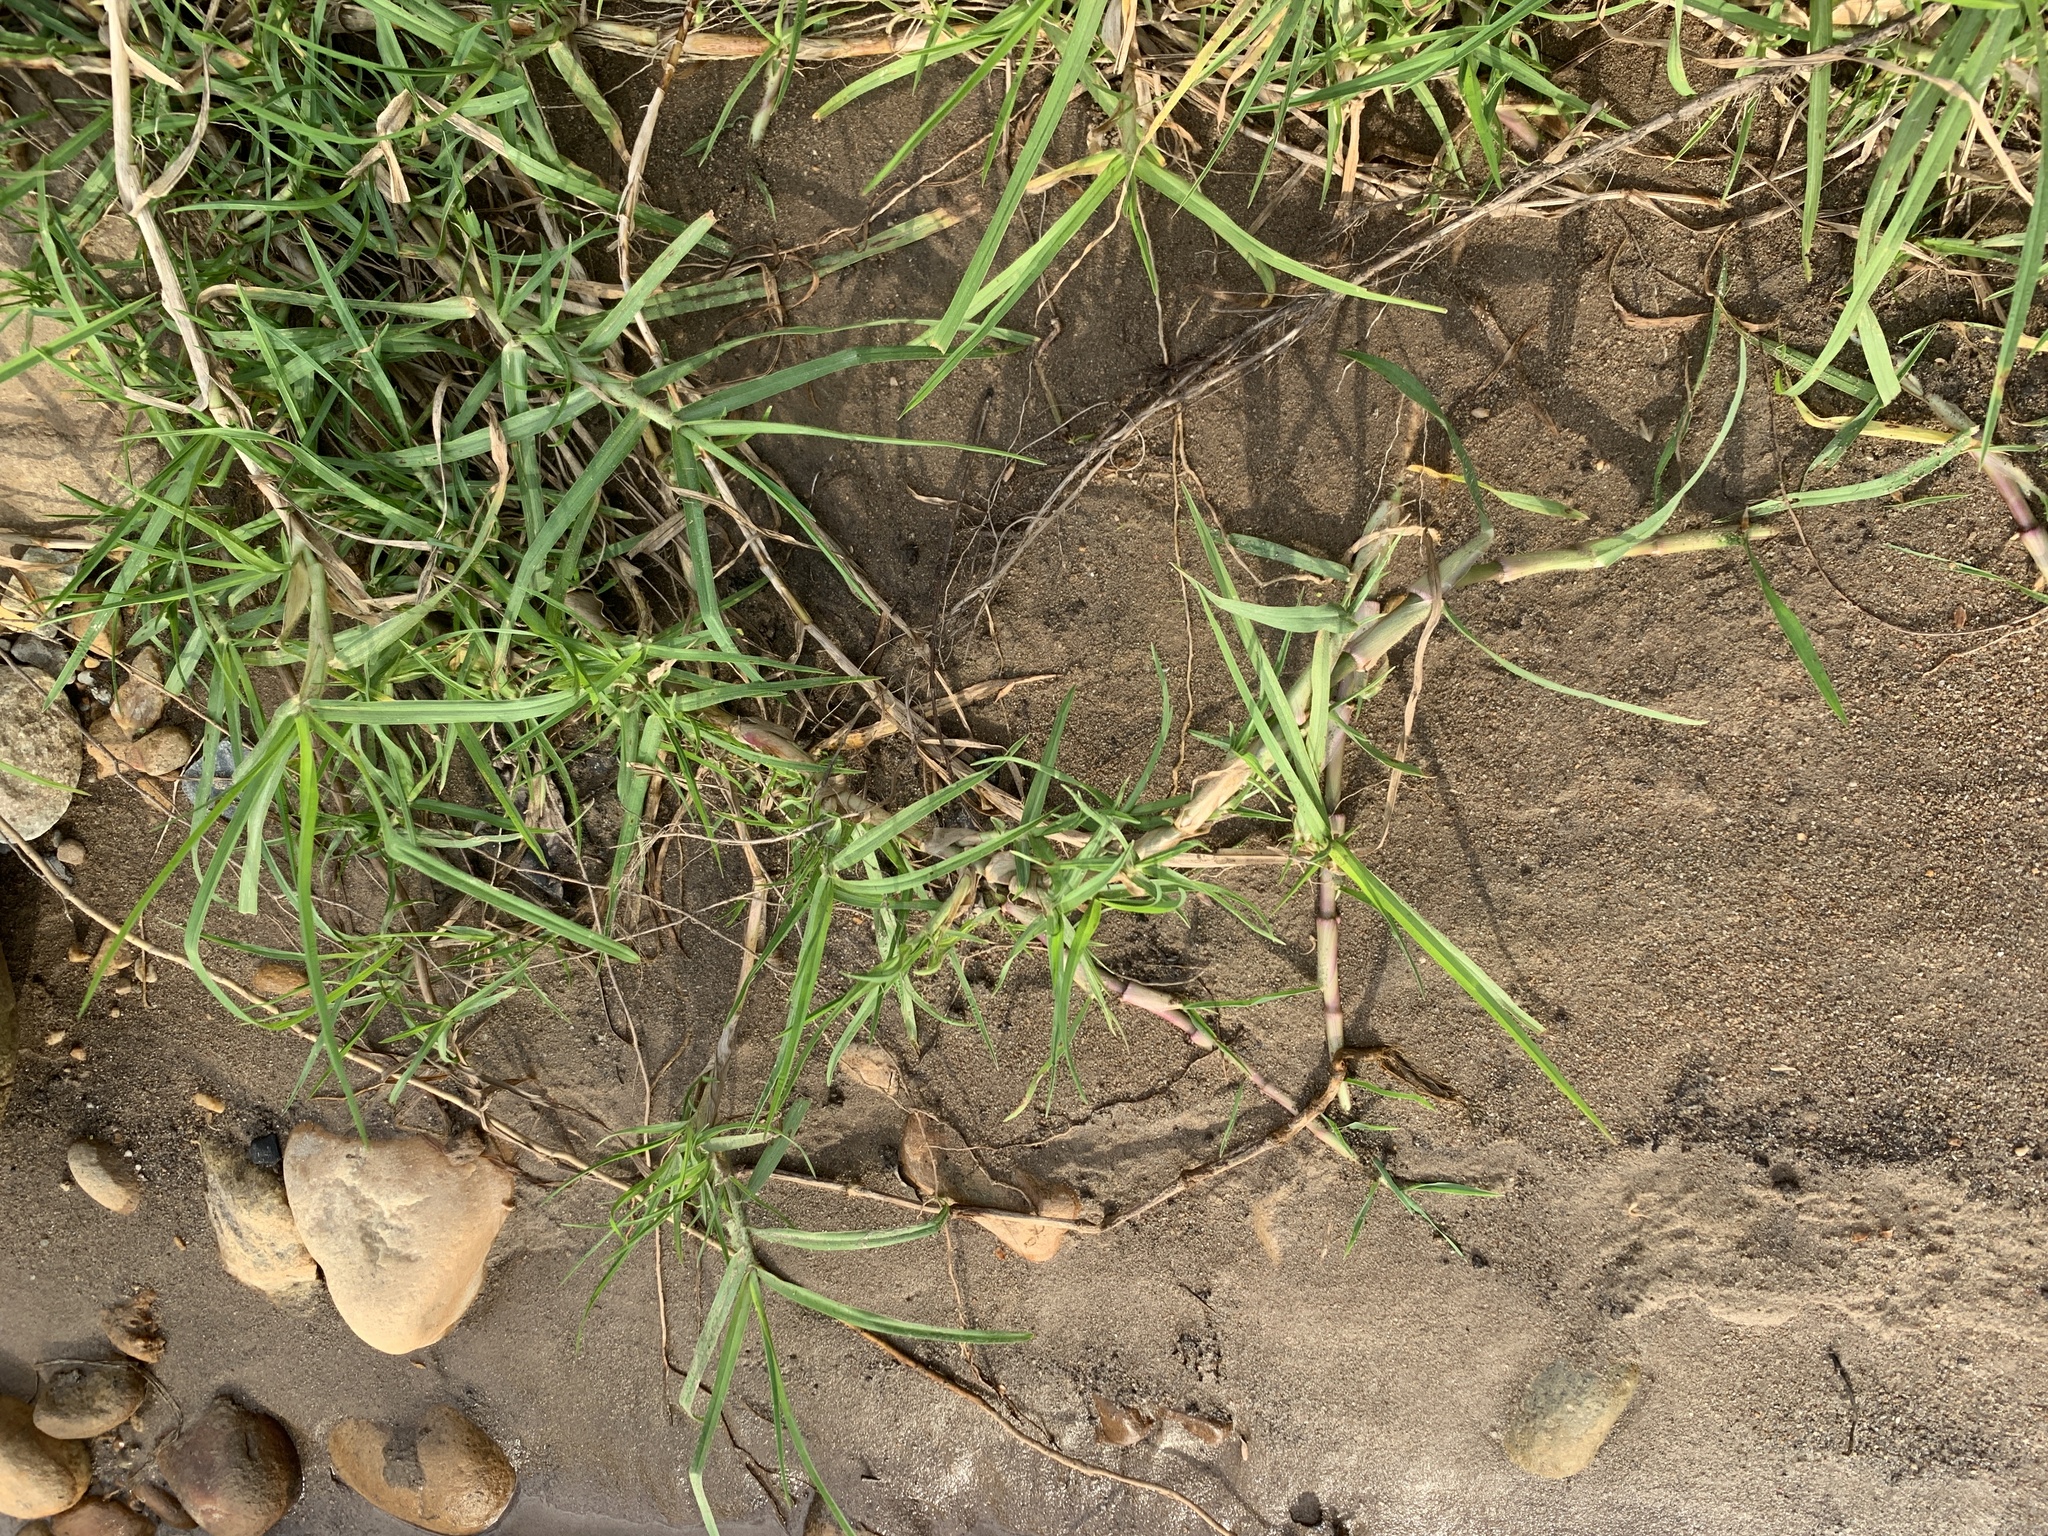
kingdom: Plantae
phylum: Tracheophyta
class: Liliopsida
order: Poales
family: Poaceae
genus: Cenchrus
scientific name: Cenchrus clandestinus
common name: Kikuyugrass
